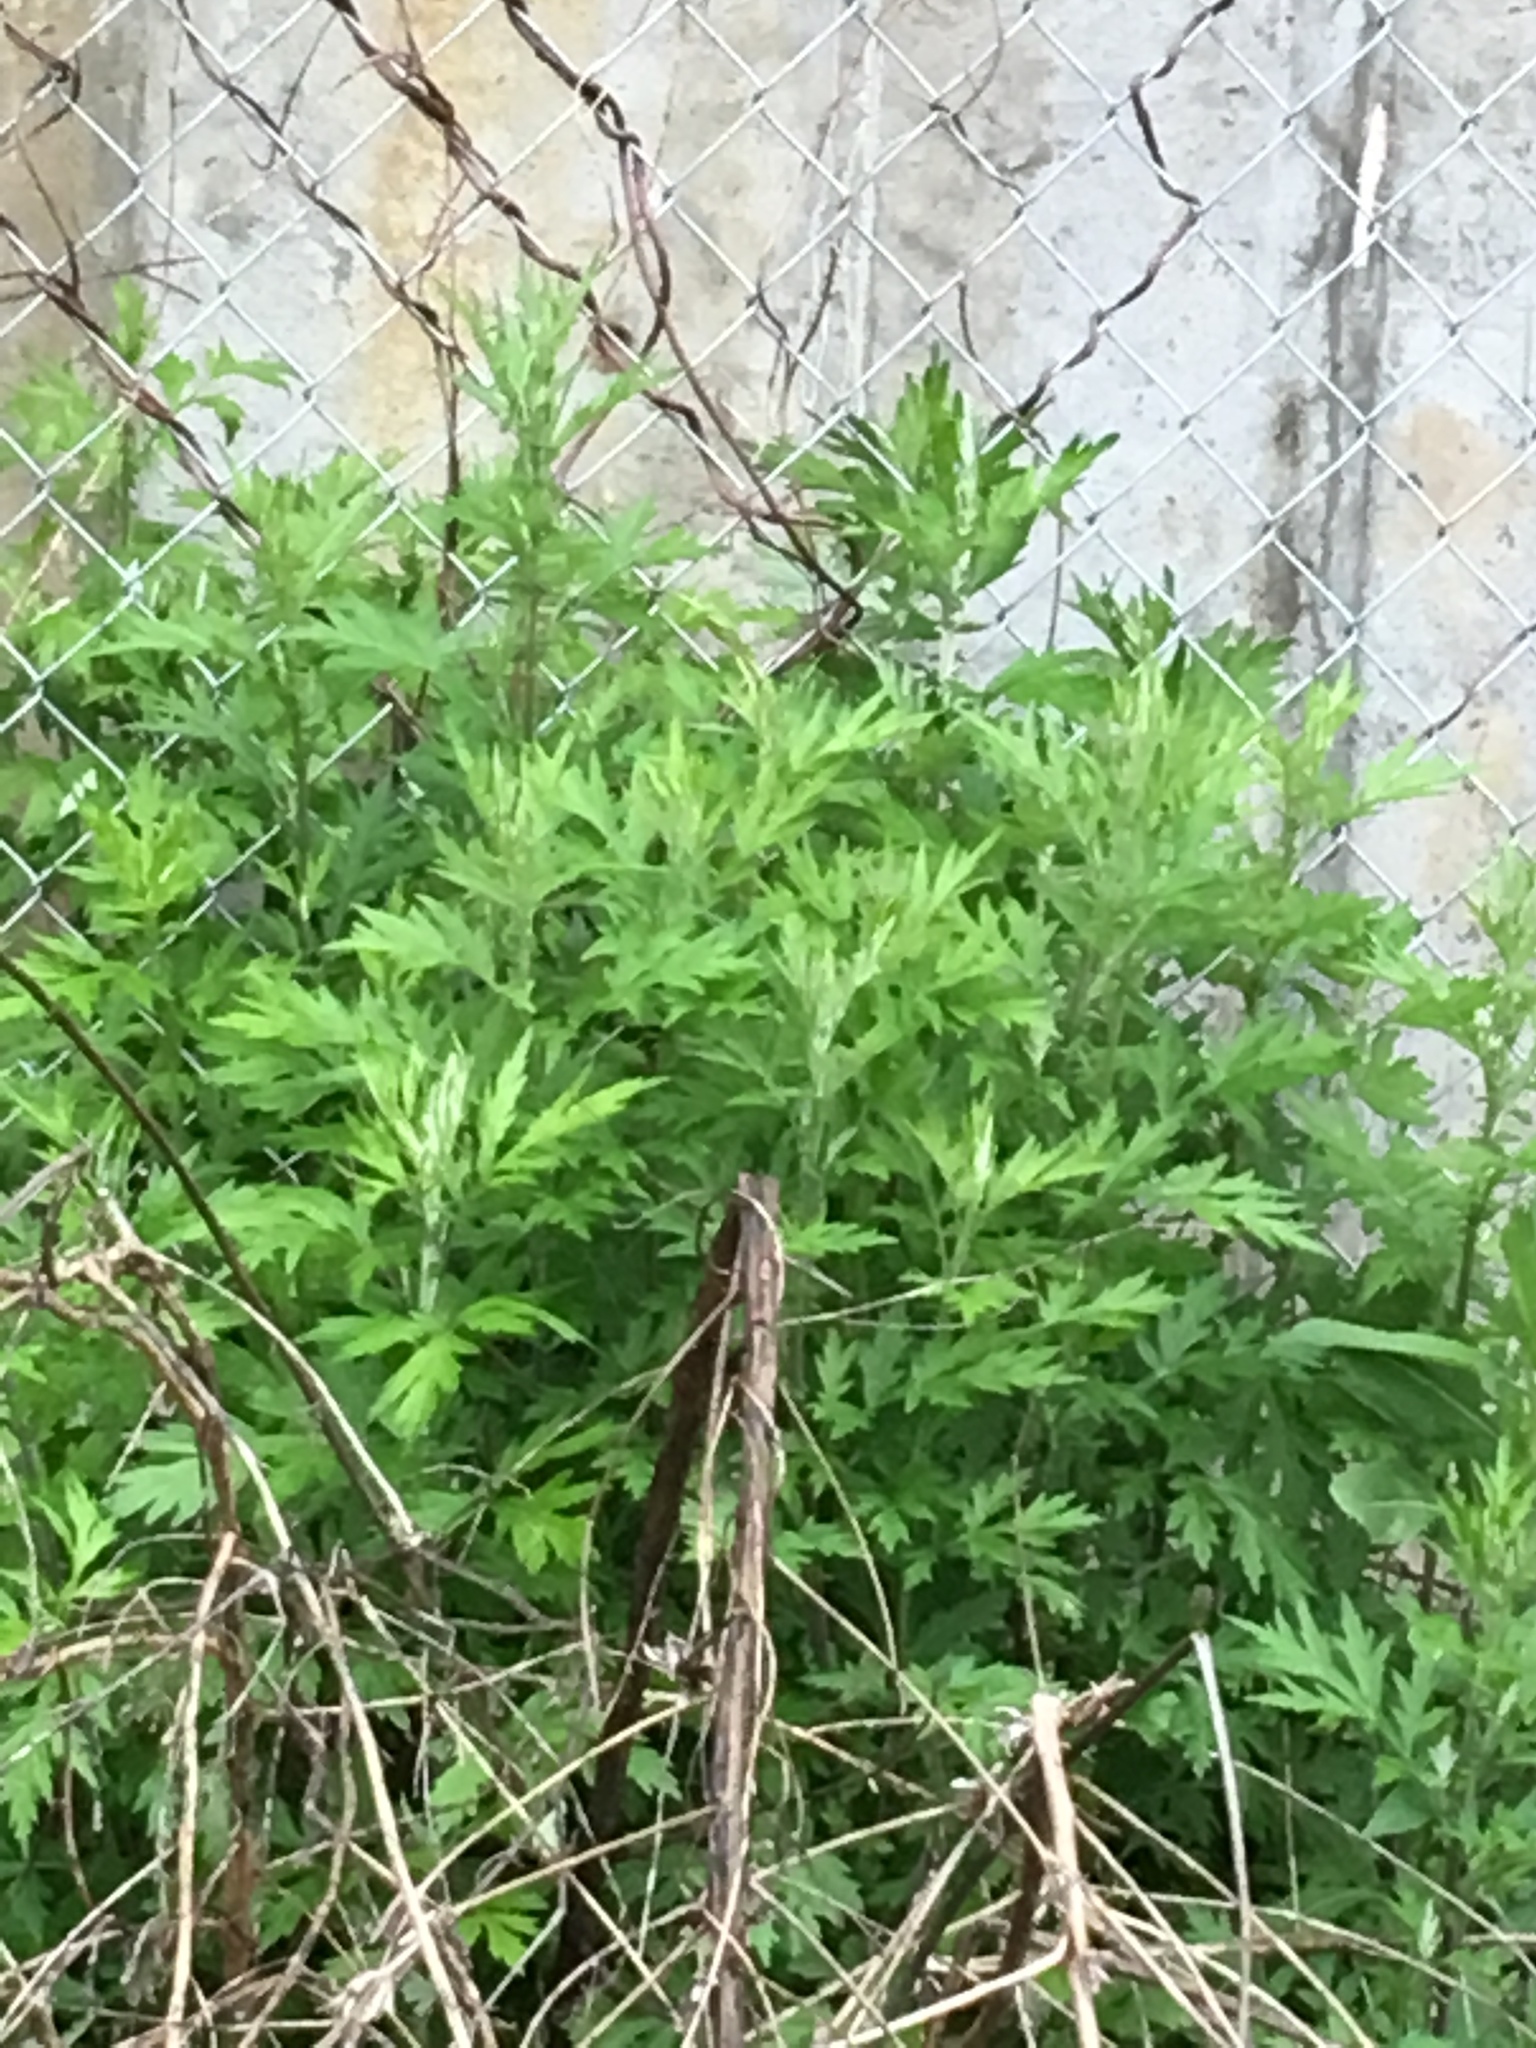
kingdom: Plantae
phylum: Tracheophyta
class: Magnoliopsida
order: Asterales
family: Asteraceae
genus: Artemisia
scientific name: Artemisia vulgaris
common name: Mugwort
